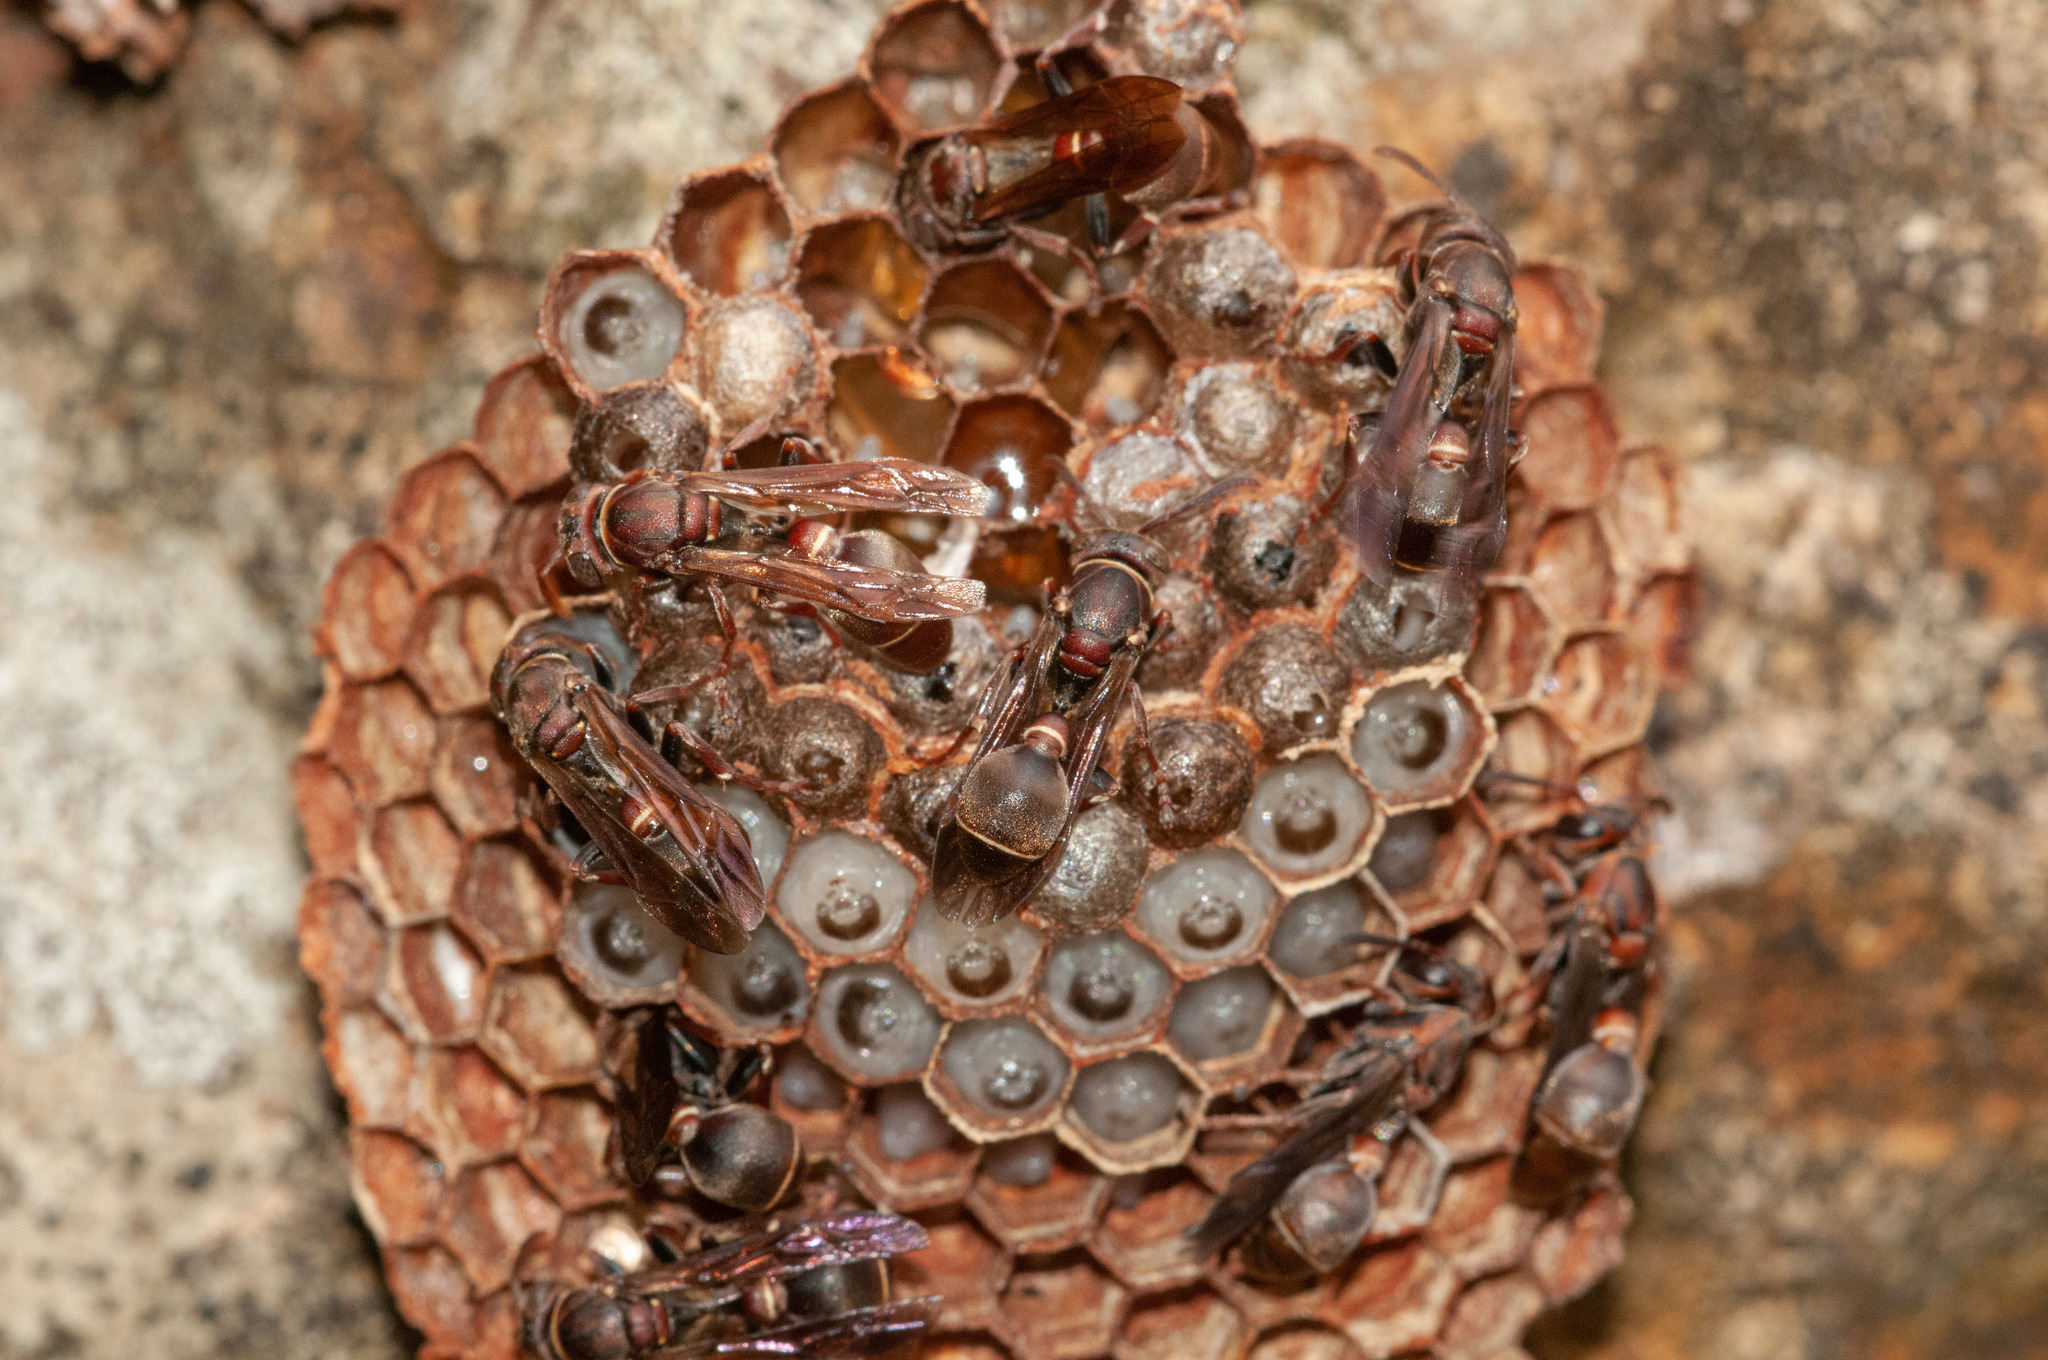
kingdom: Animalia
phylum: Arthropoda
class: Insecta
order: Hymenoptera
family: Vespidae
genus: Ropalidia
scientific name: Ropalidia plebeiana
